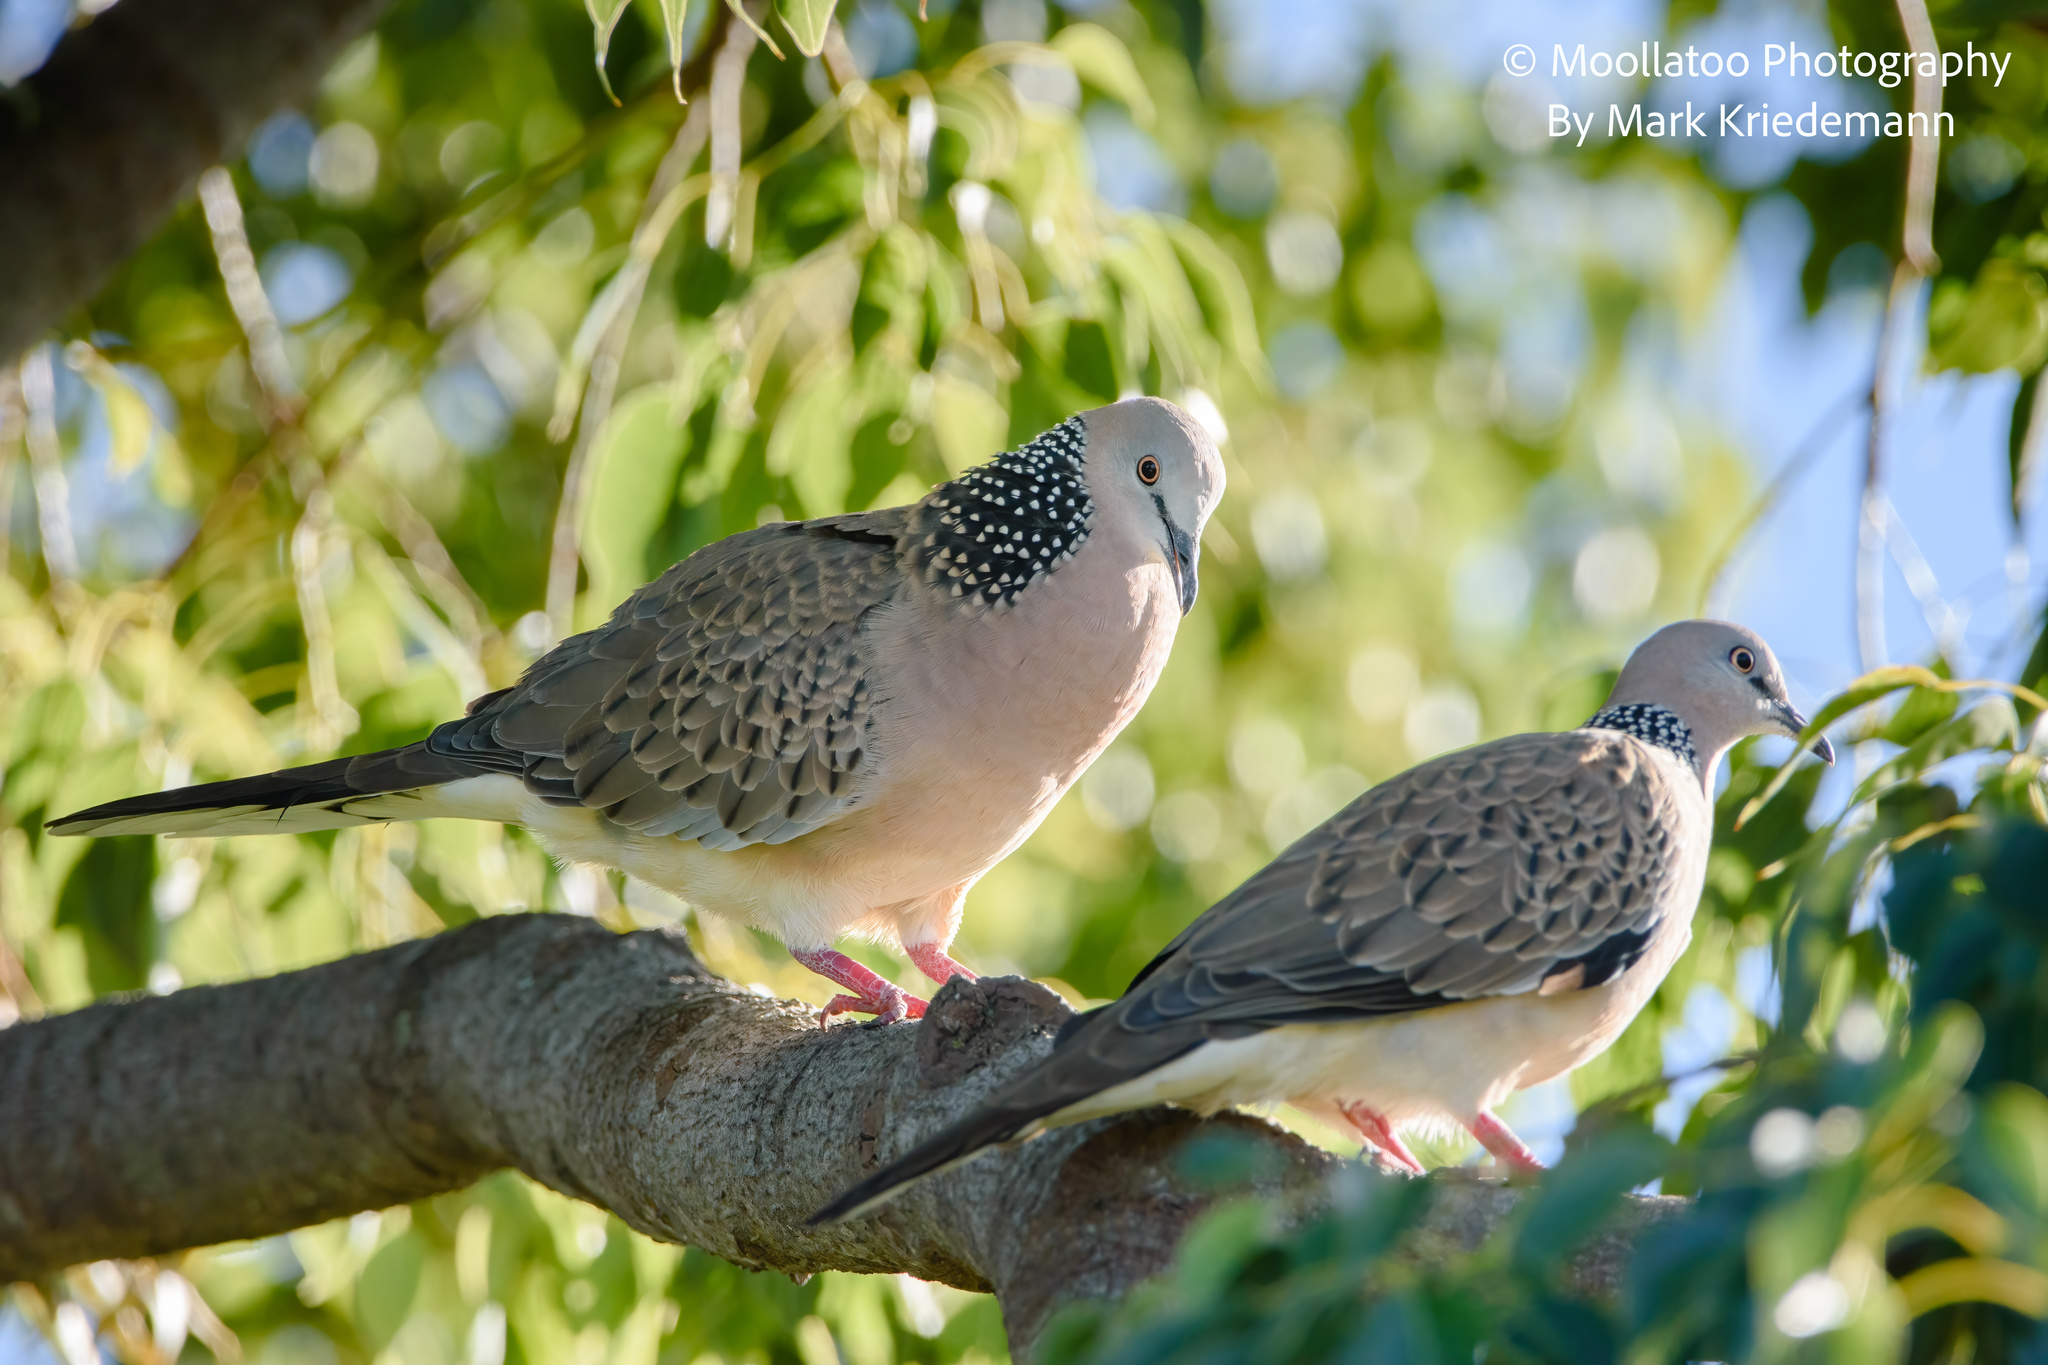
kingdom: Animalia
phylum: Chordata
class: Aves
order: Columbiformes
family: Columbidae
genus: Spilopelia
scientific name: Spilopelia chinensis
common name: Spotted dove
